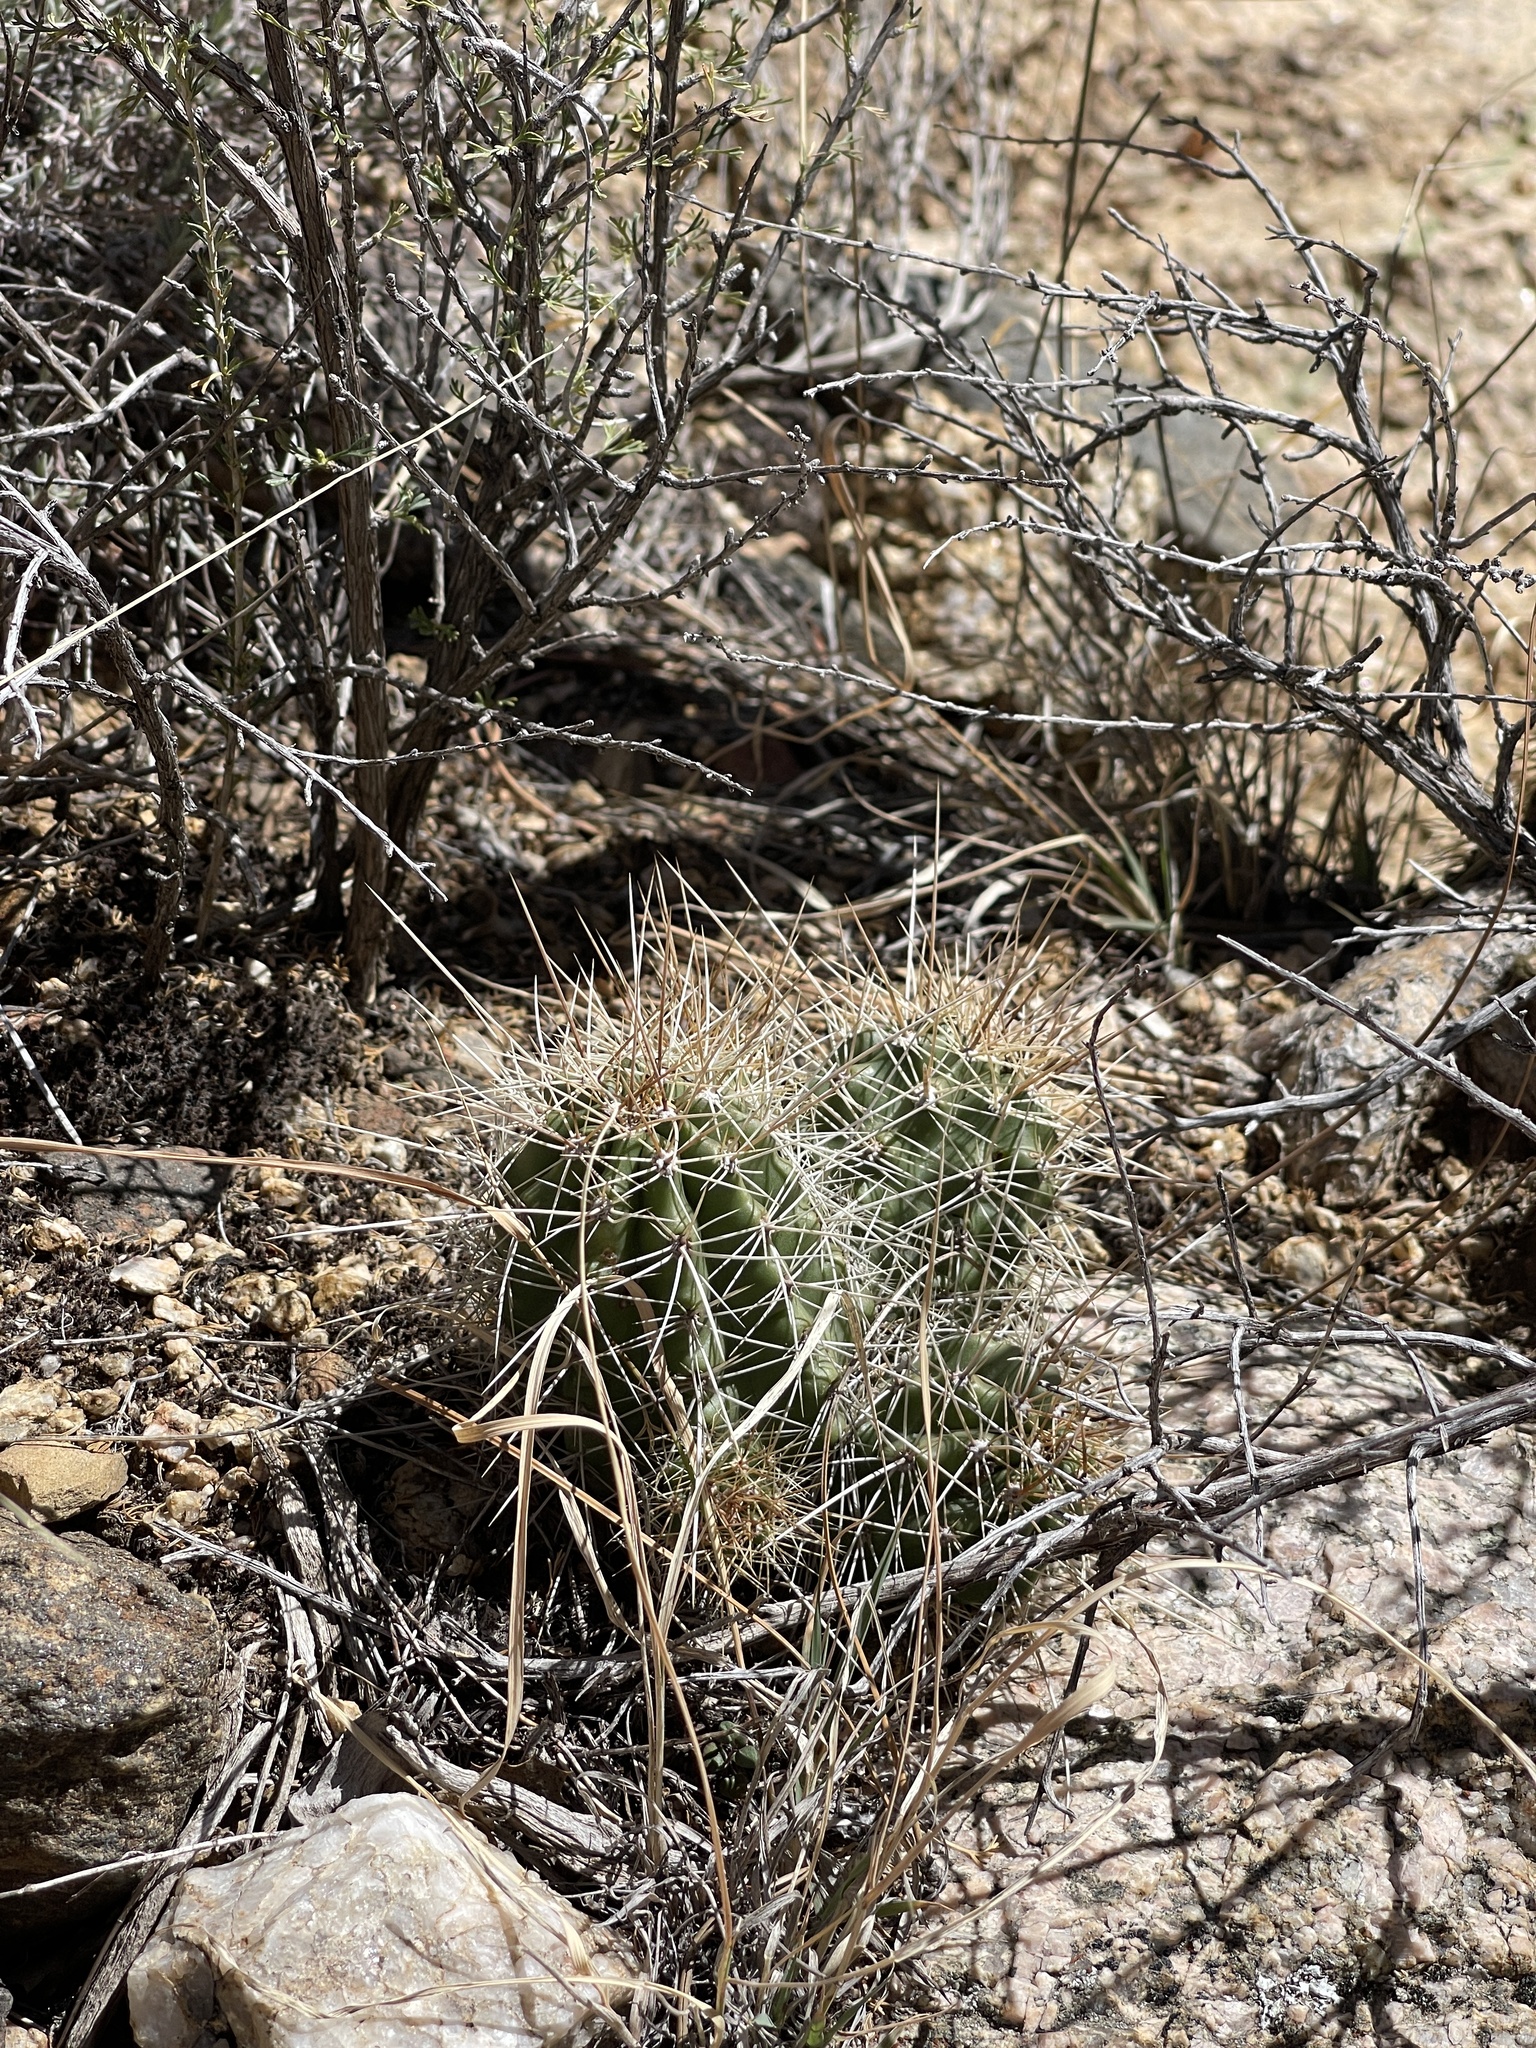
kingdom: Plantae
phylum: Tracheophyta
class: Magnoliopsida
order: Caryophyllales
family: Cactaceae
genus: Echinocereus
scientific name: Echinocereus bakeri
